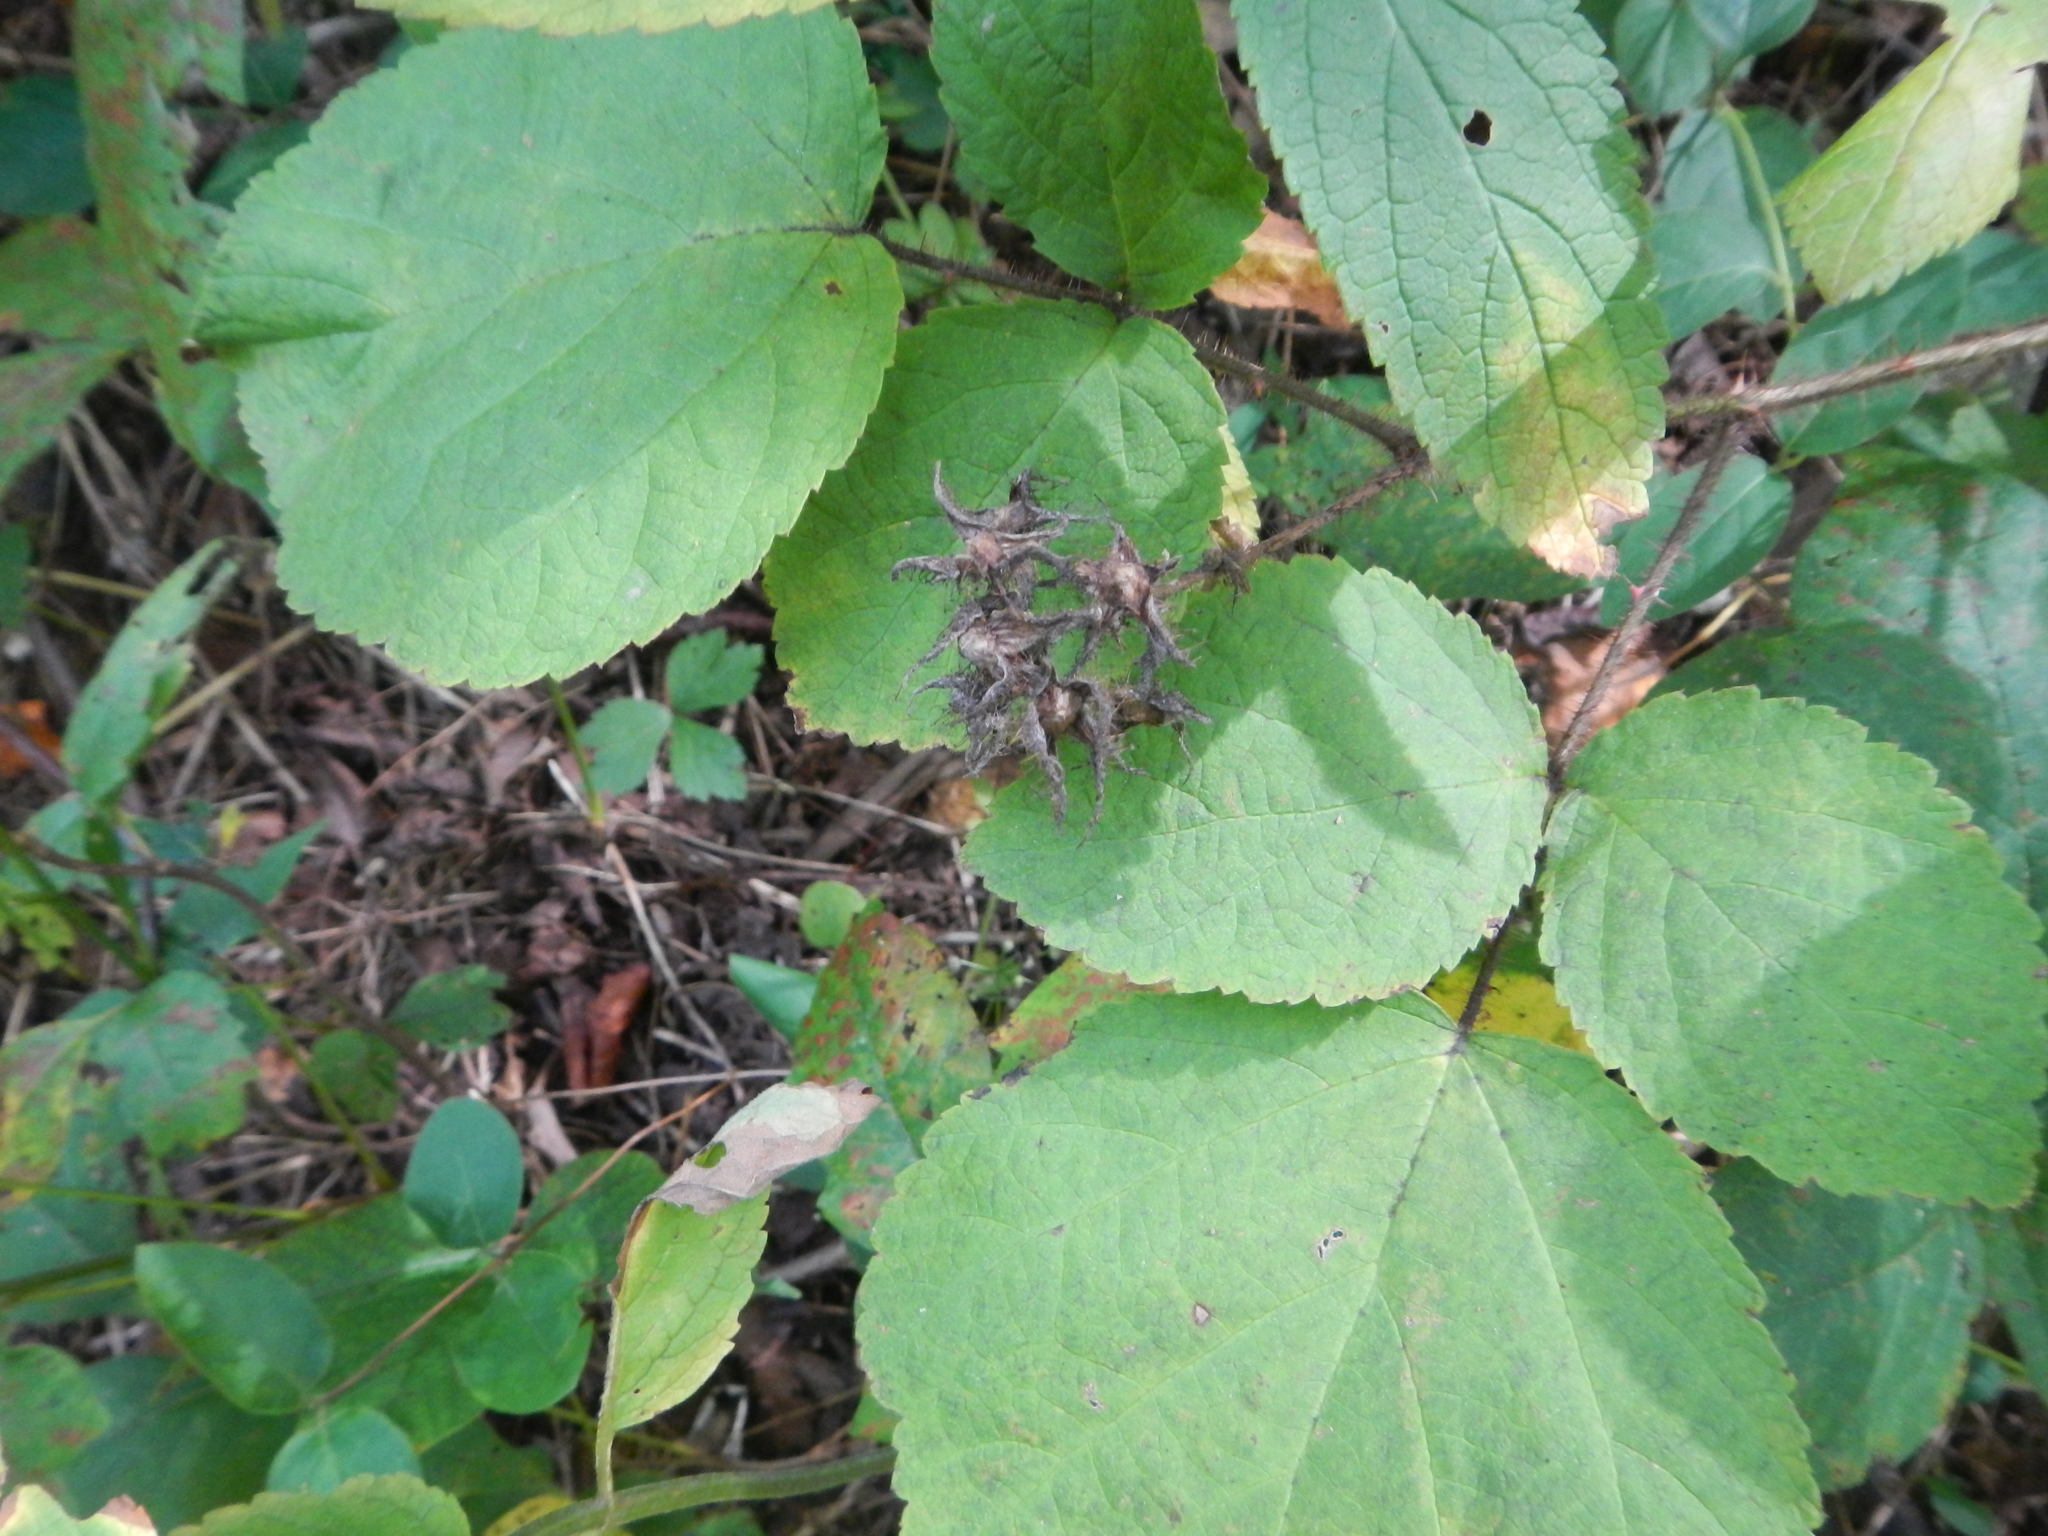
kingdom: Plantae
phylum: Tracheophyta
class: Magnoliopsida
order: Rosales
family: Rosaceae
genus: Rubus
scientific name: Rubus phoenicolasius
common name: Japanese wineberry
